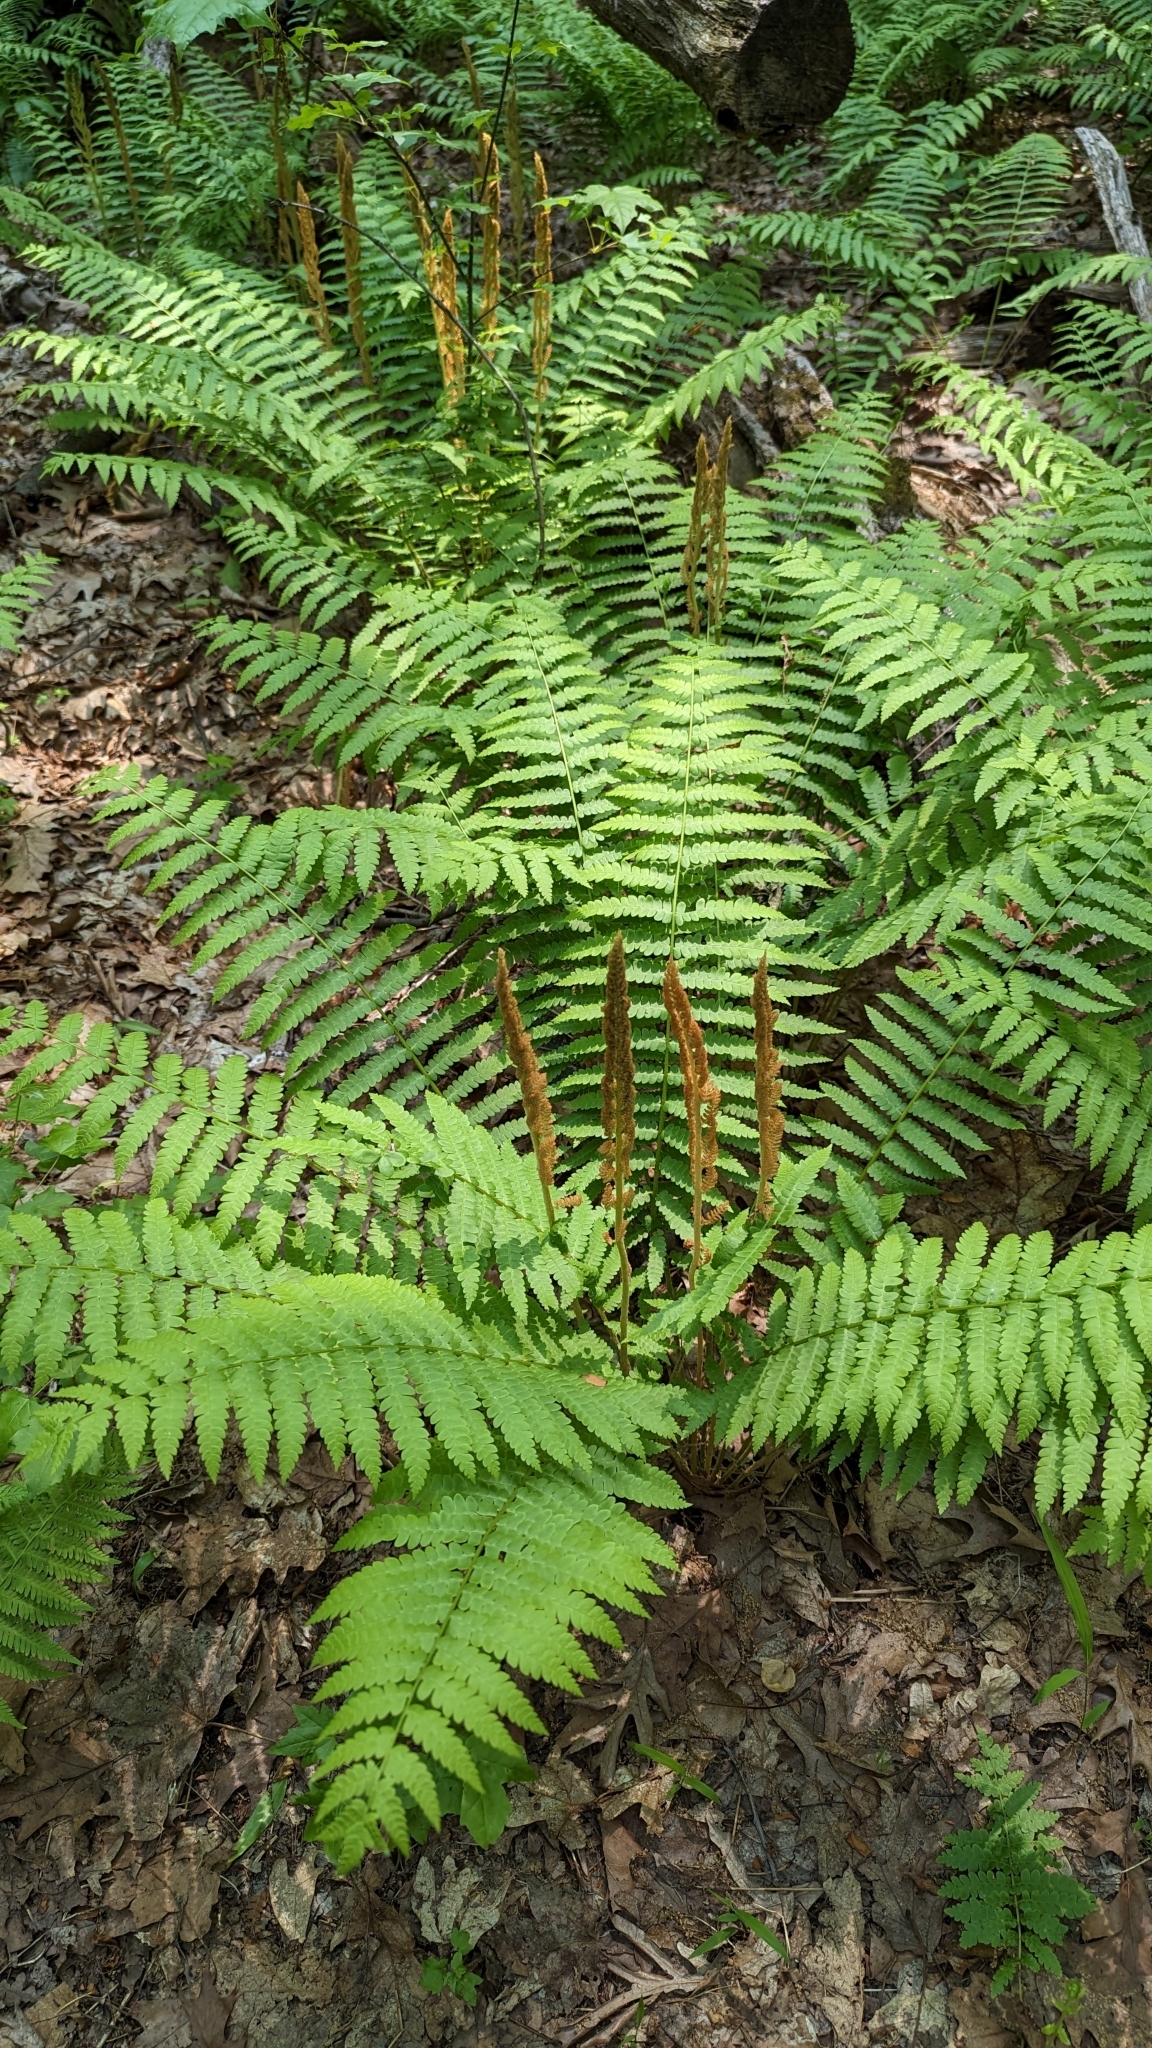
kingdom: Plantae
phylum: Tracheophyta
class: Polypodiopsida
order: Osmundales
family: Osmundaceae
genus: Osmundastrum
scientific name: Osmundastrum cinnamomeum
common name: Cinnamon fern
